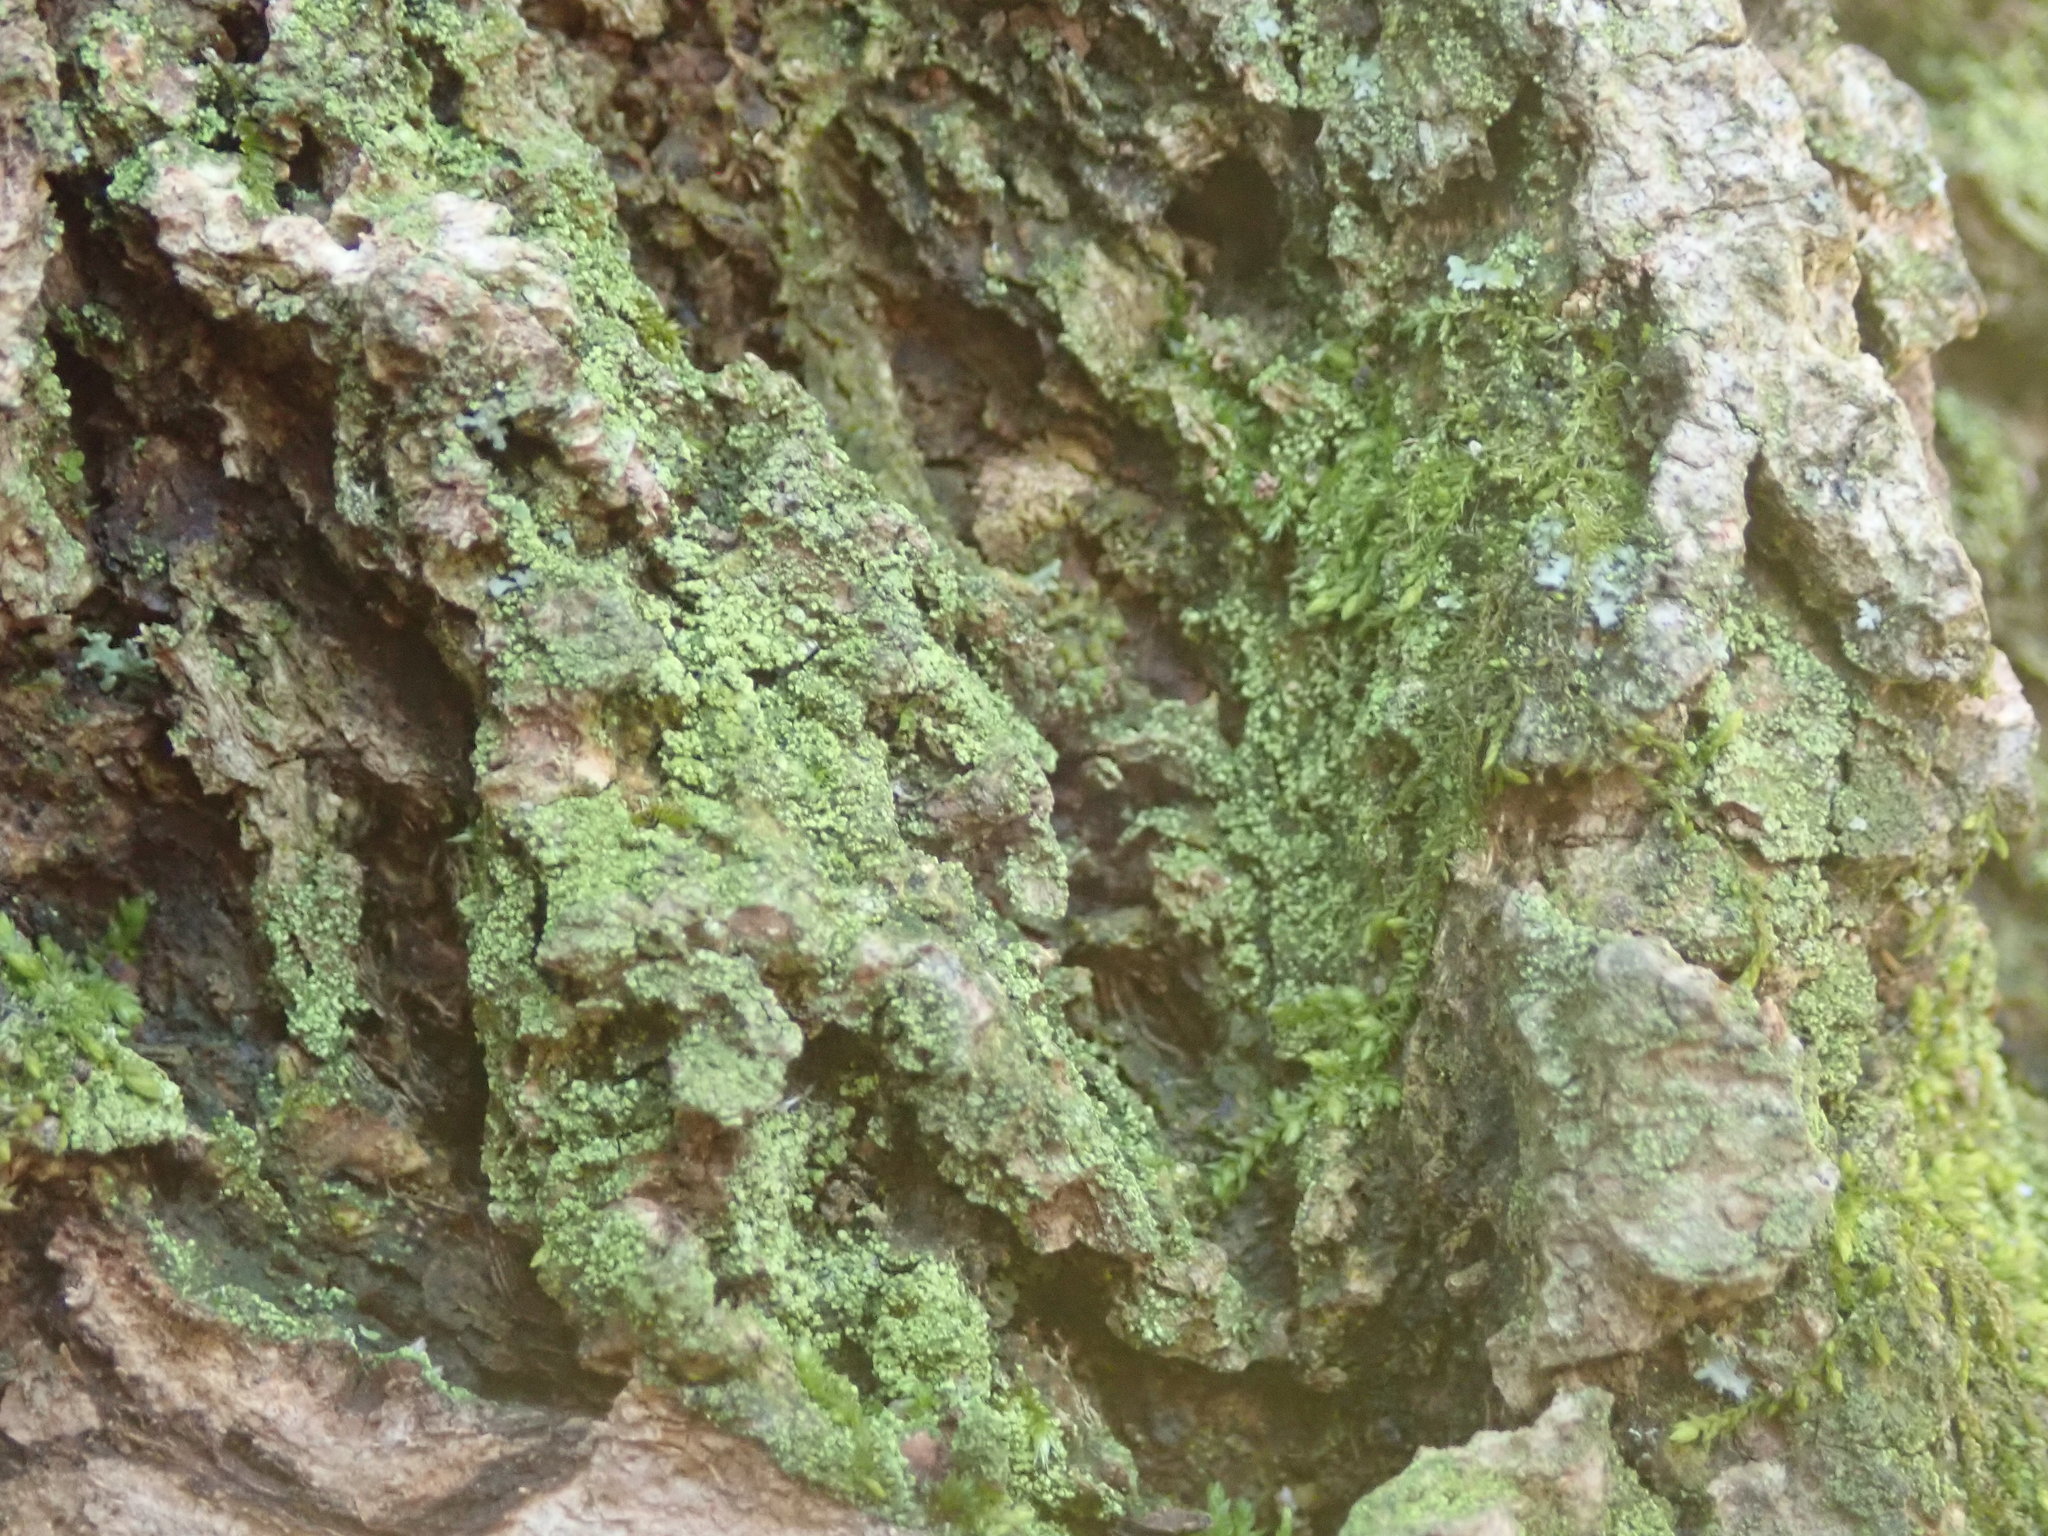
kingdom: Fungi
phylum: Ascomycota
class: Lecanoromycetes
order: Lecanorales
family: Ramalinaceae
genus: Lecania
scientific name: Lecania croatica
